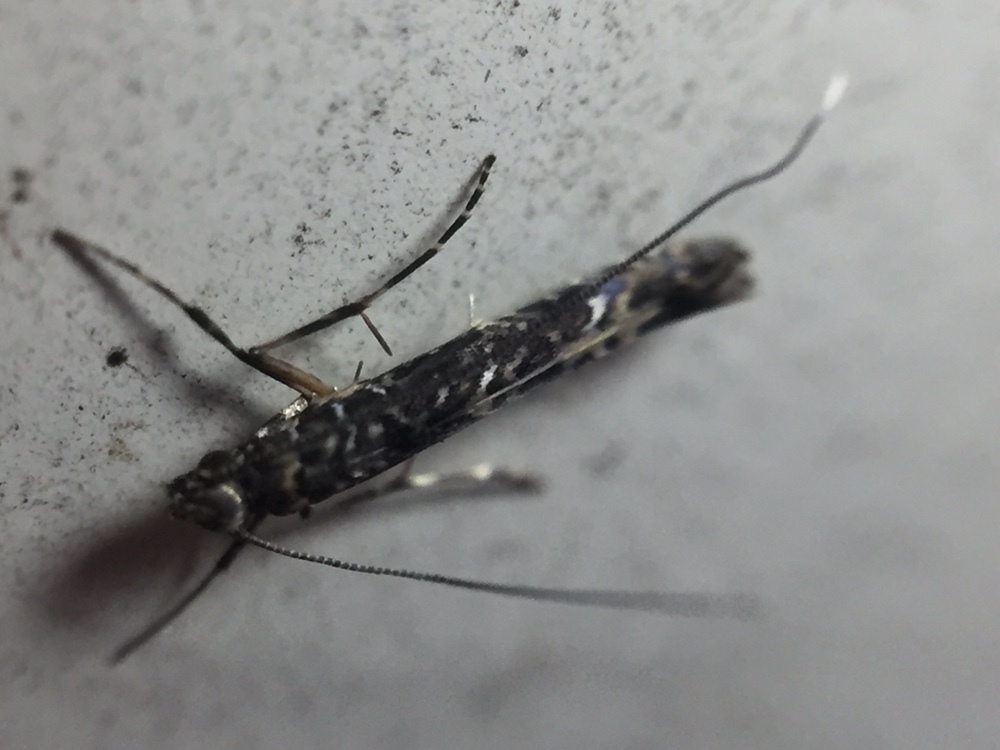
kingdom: Animalia
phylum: Arthropoda
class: Insecta
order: Lepidoptera
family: Gracillariidae
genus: Conopomorpha
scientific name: Conopomorpha cyanospila
